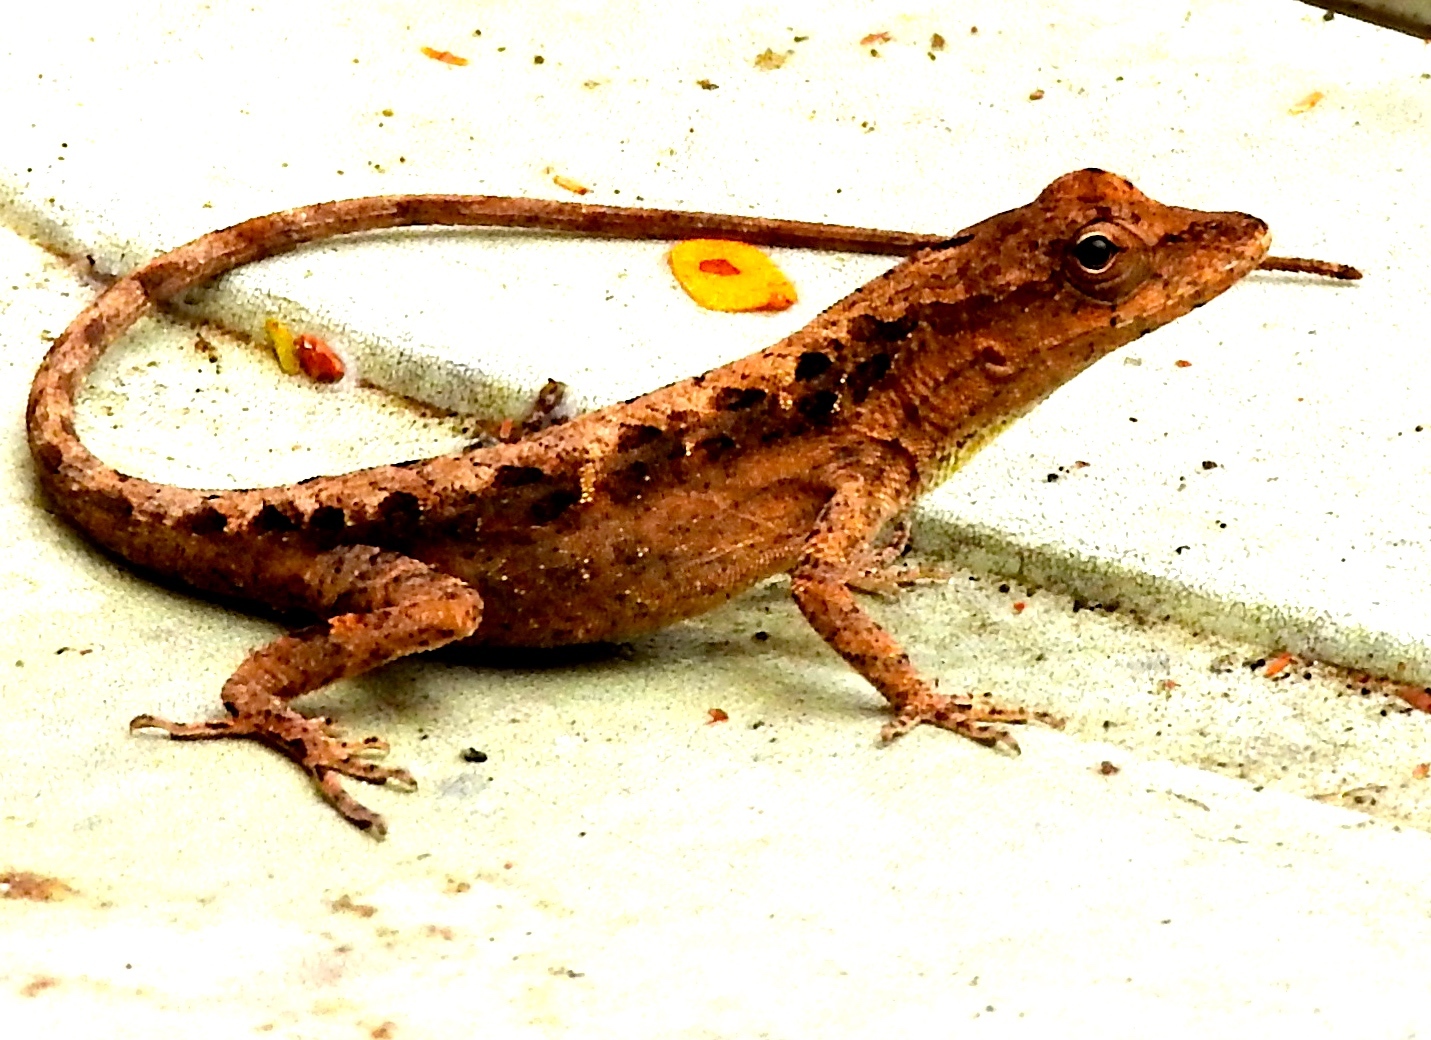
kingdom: Animalia
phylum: Chordata
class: Squamata
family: Dactyloidae
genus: Anolis
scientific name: Anolis nebulosus
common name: Clouded anole
